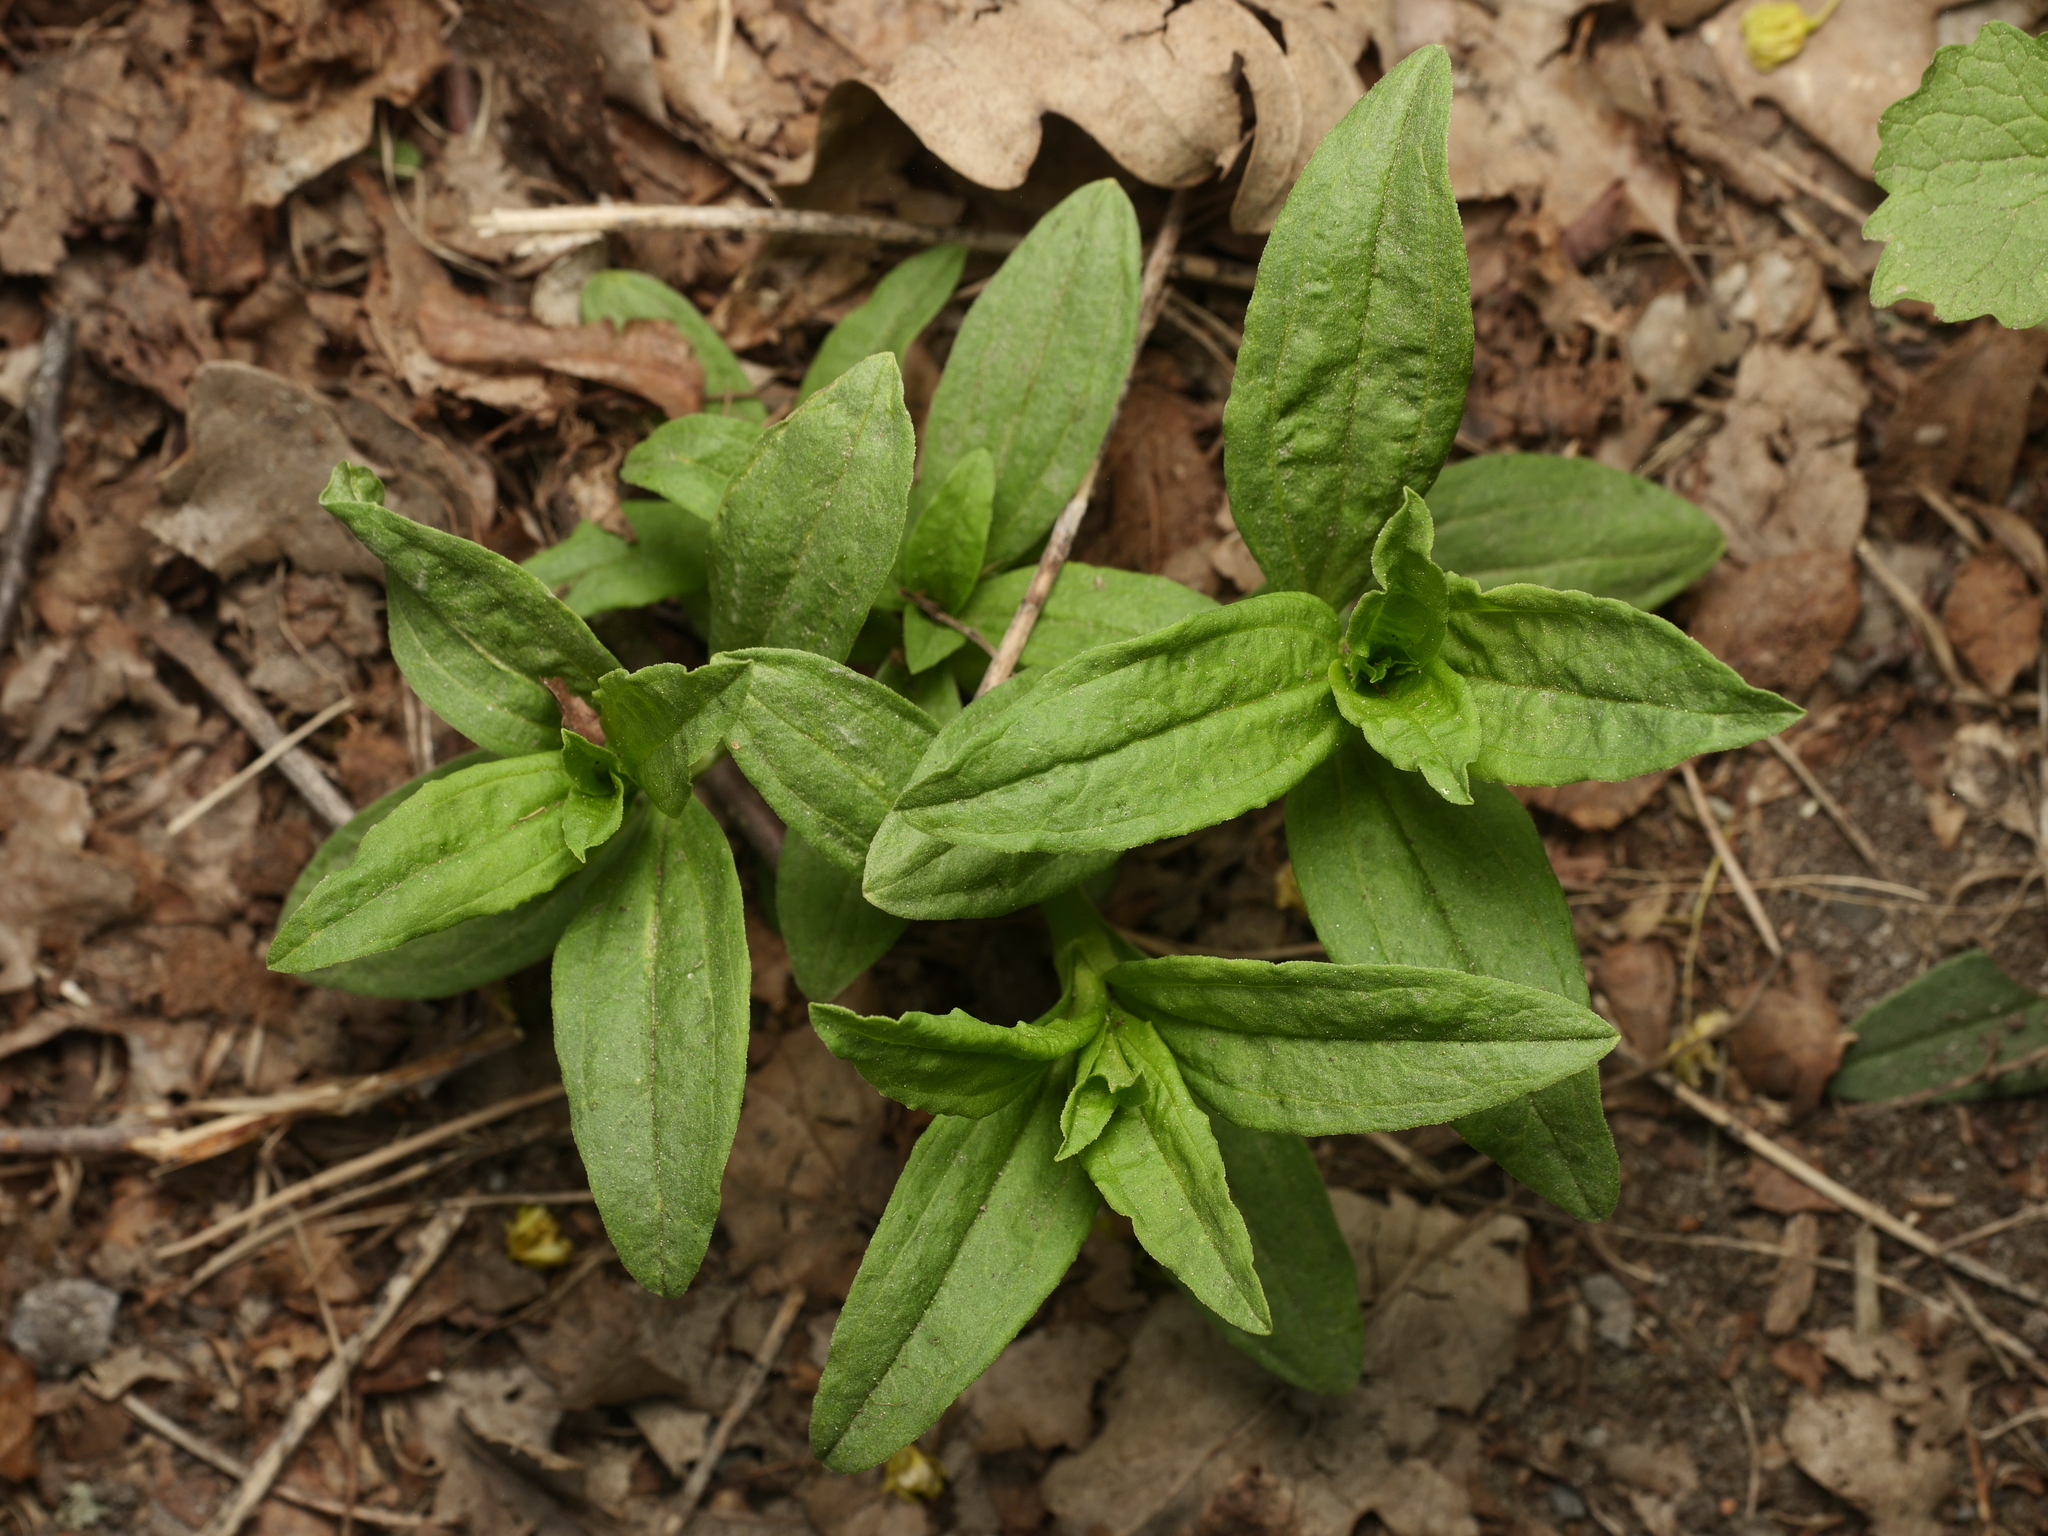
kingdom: Plantae
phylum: Tracheophyta
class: Magnoliopsida
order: Caryophyllales
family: Caryophyllaceae
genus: Saponaria
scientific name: Saponaria officinalis
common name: Soapwort
